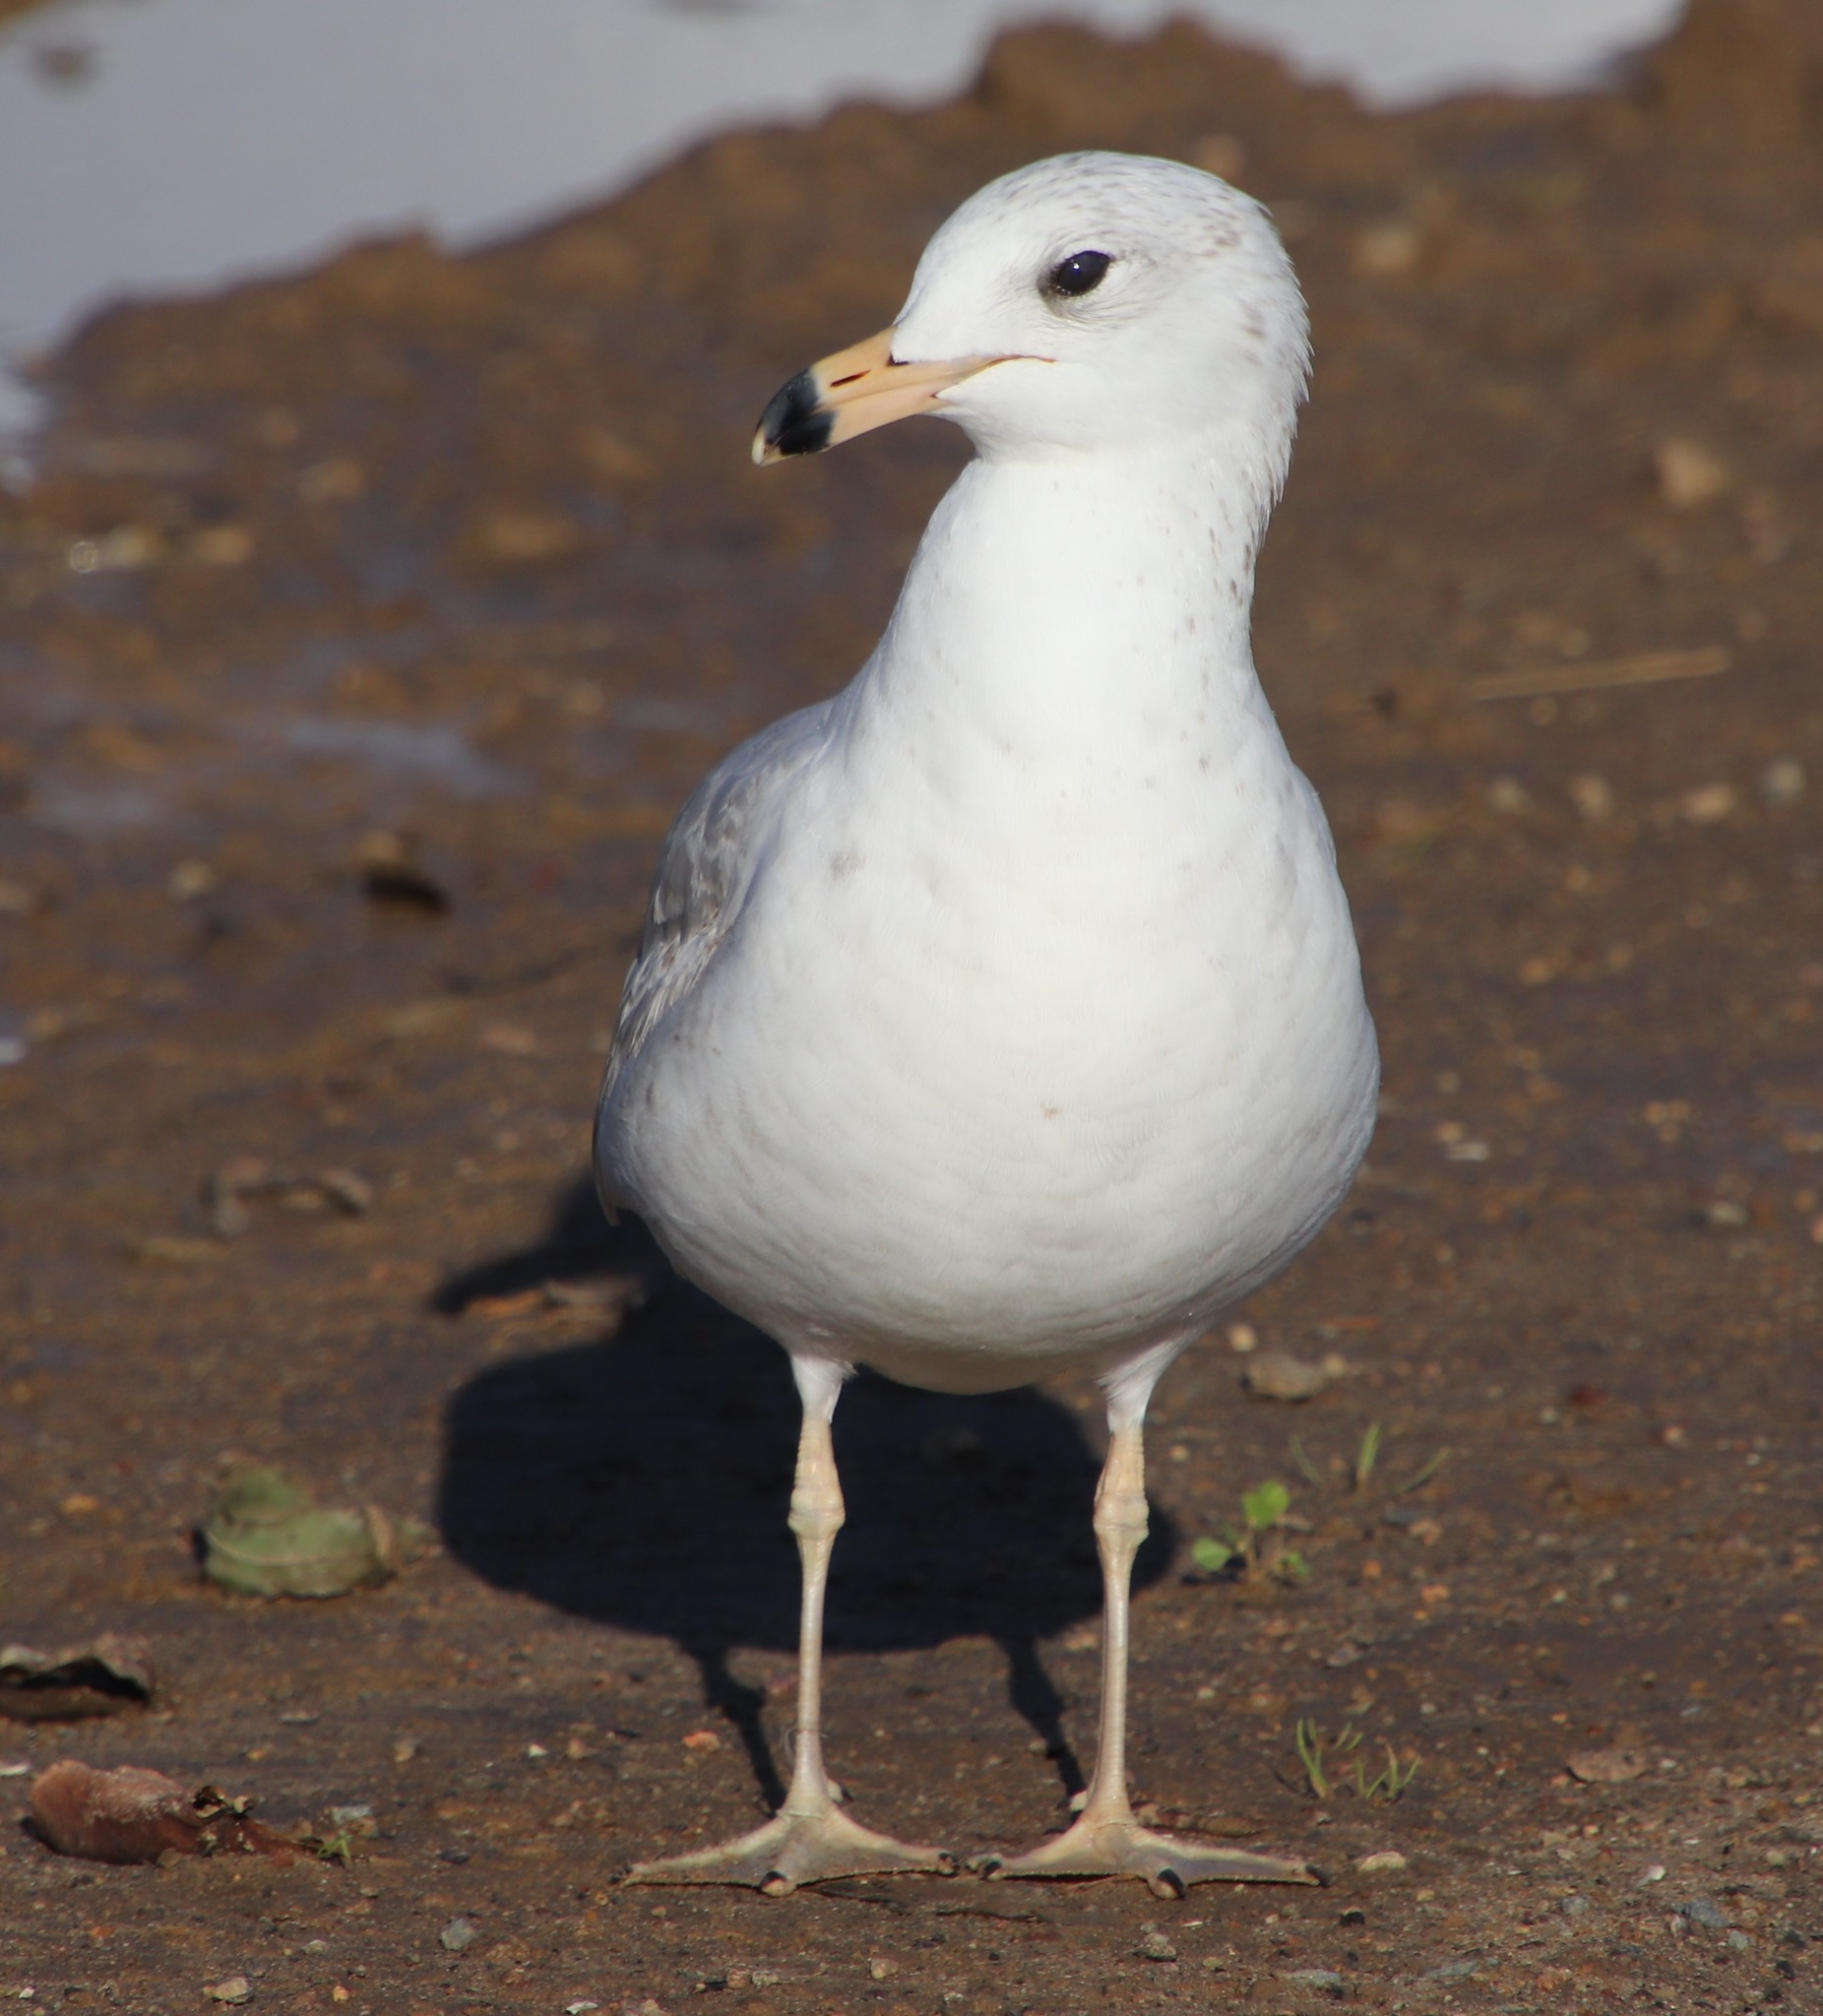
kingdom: Animalia
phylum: Chordata
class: Aves
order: Charadriiformes
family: Laridae
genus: Larus
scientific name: Larus delawarensis
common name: Ring-billed gull
